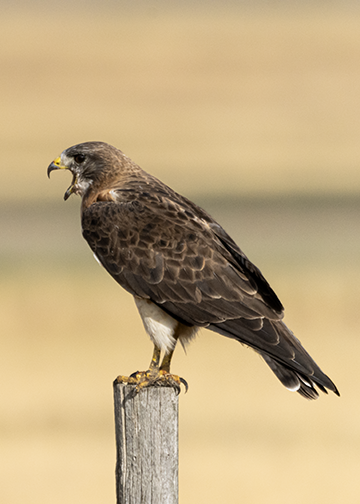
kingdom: Animalia
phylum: Chordata
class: Aves
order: Accipitriformes
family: Accipitridae
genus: Buteo
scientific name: Buteo swainsoni
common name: Swainson's hawk
